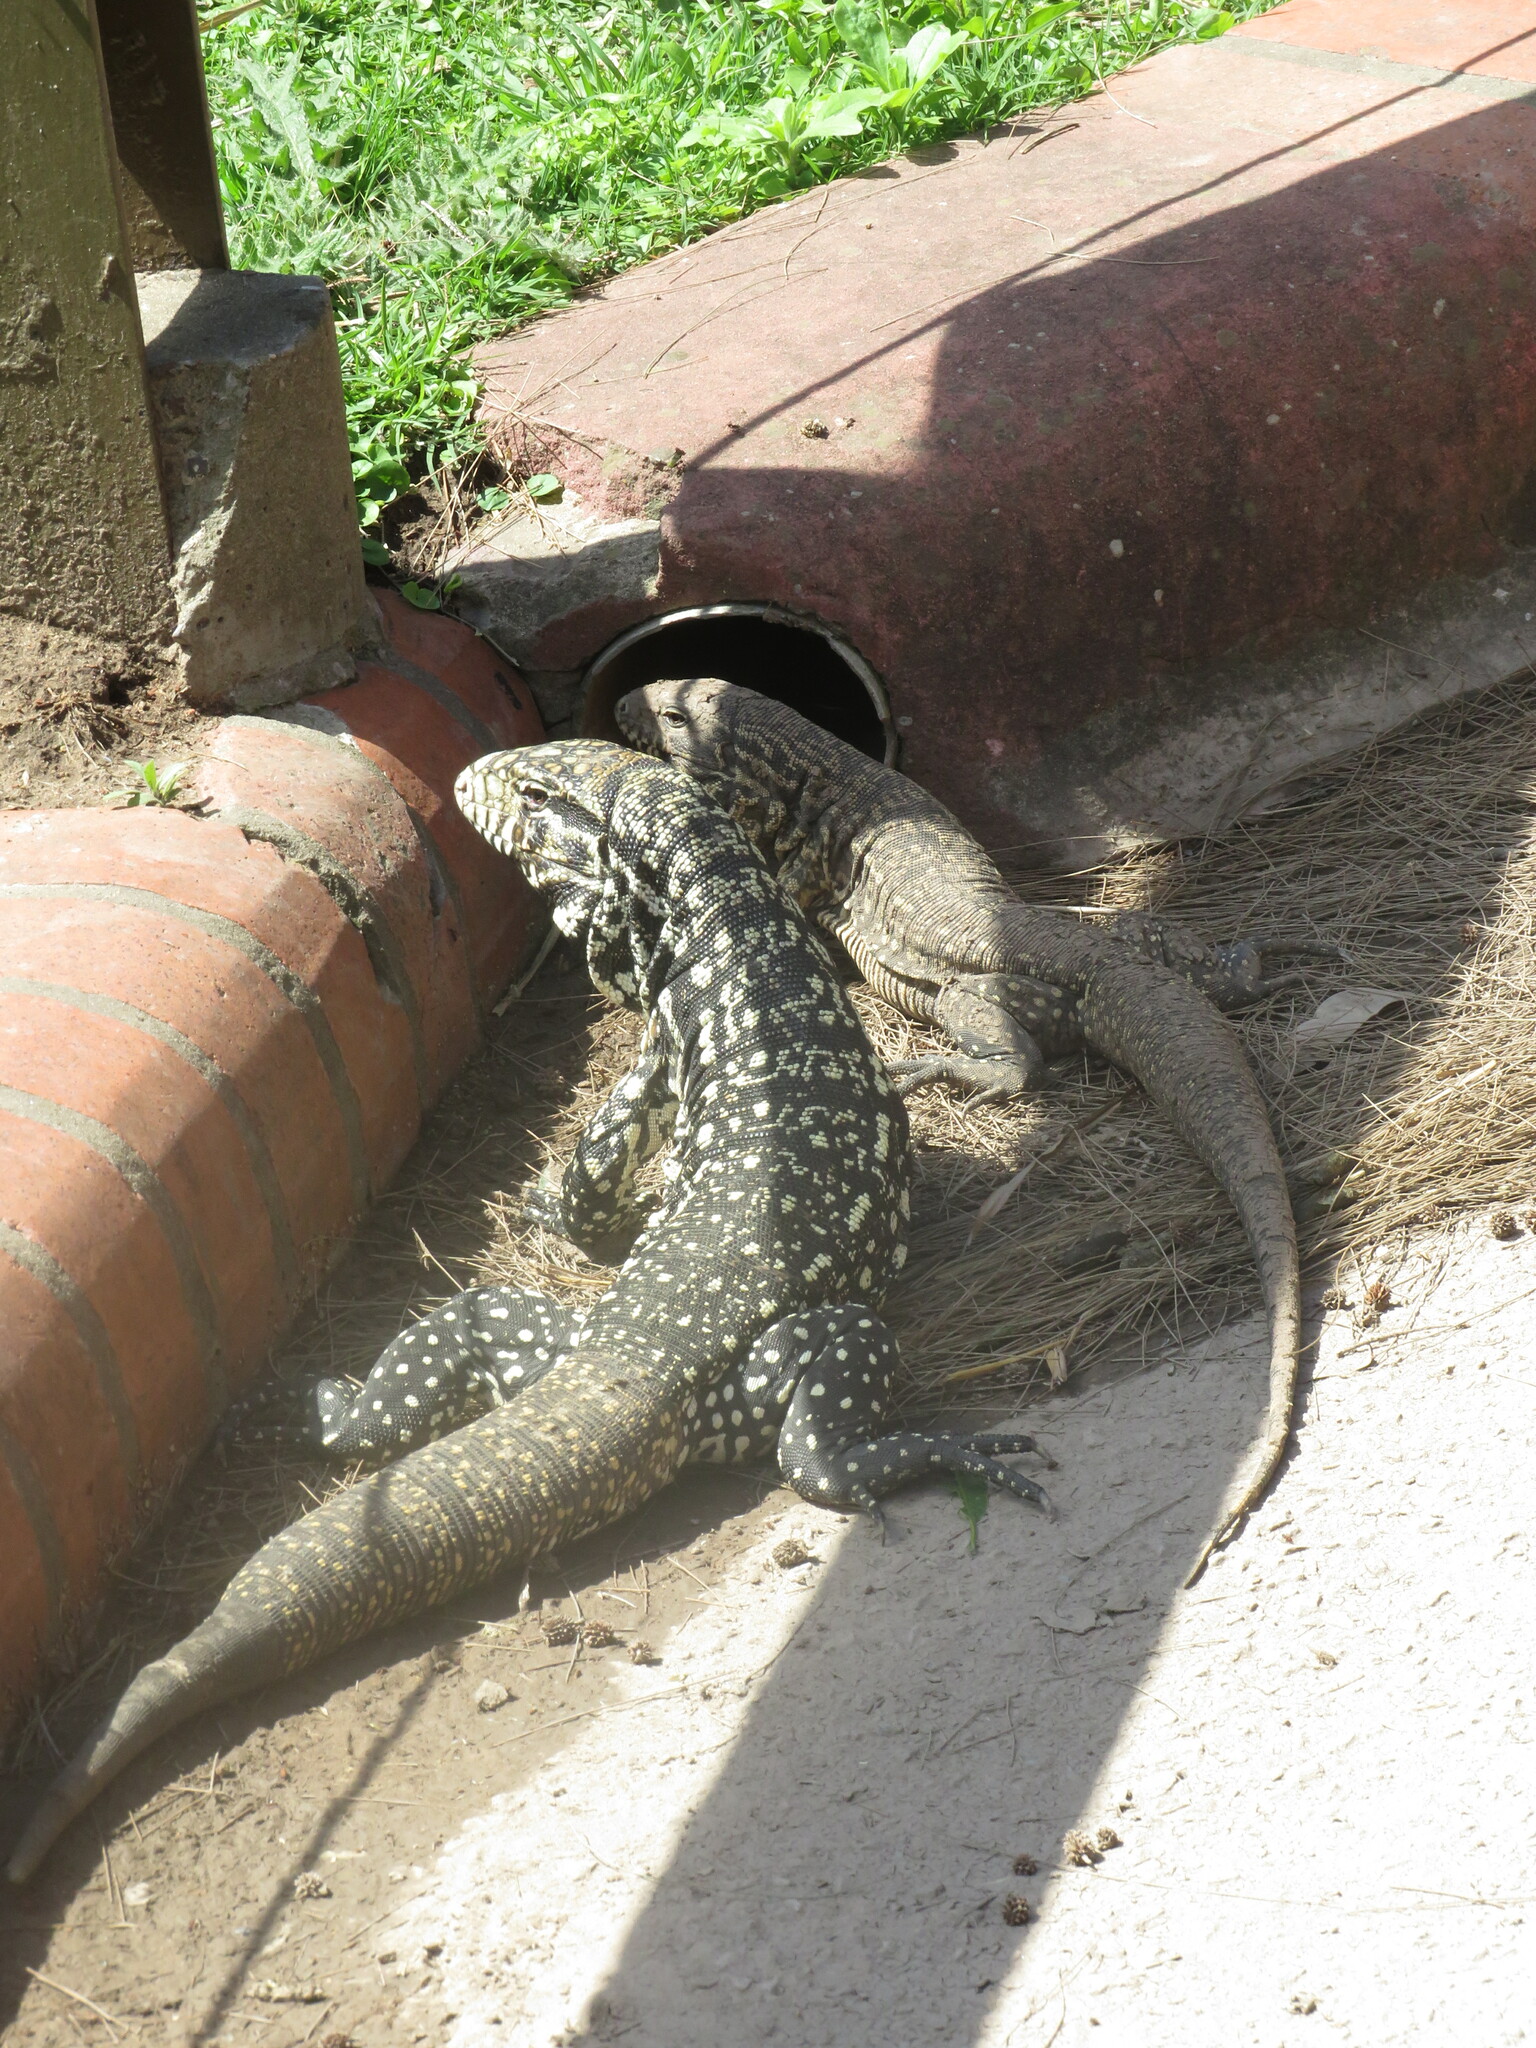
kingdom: Animalia
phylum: Chordata
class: Squamata
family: Teiidae
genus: Salvator
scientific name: Salvator merianae
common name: Argentine black and white tegu
